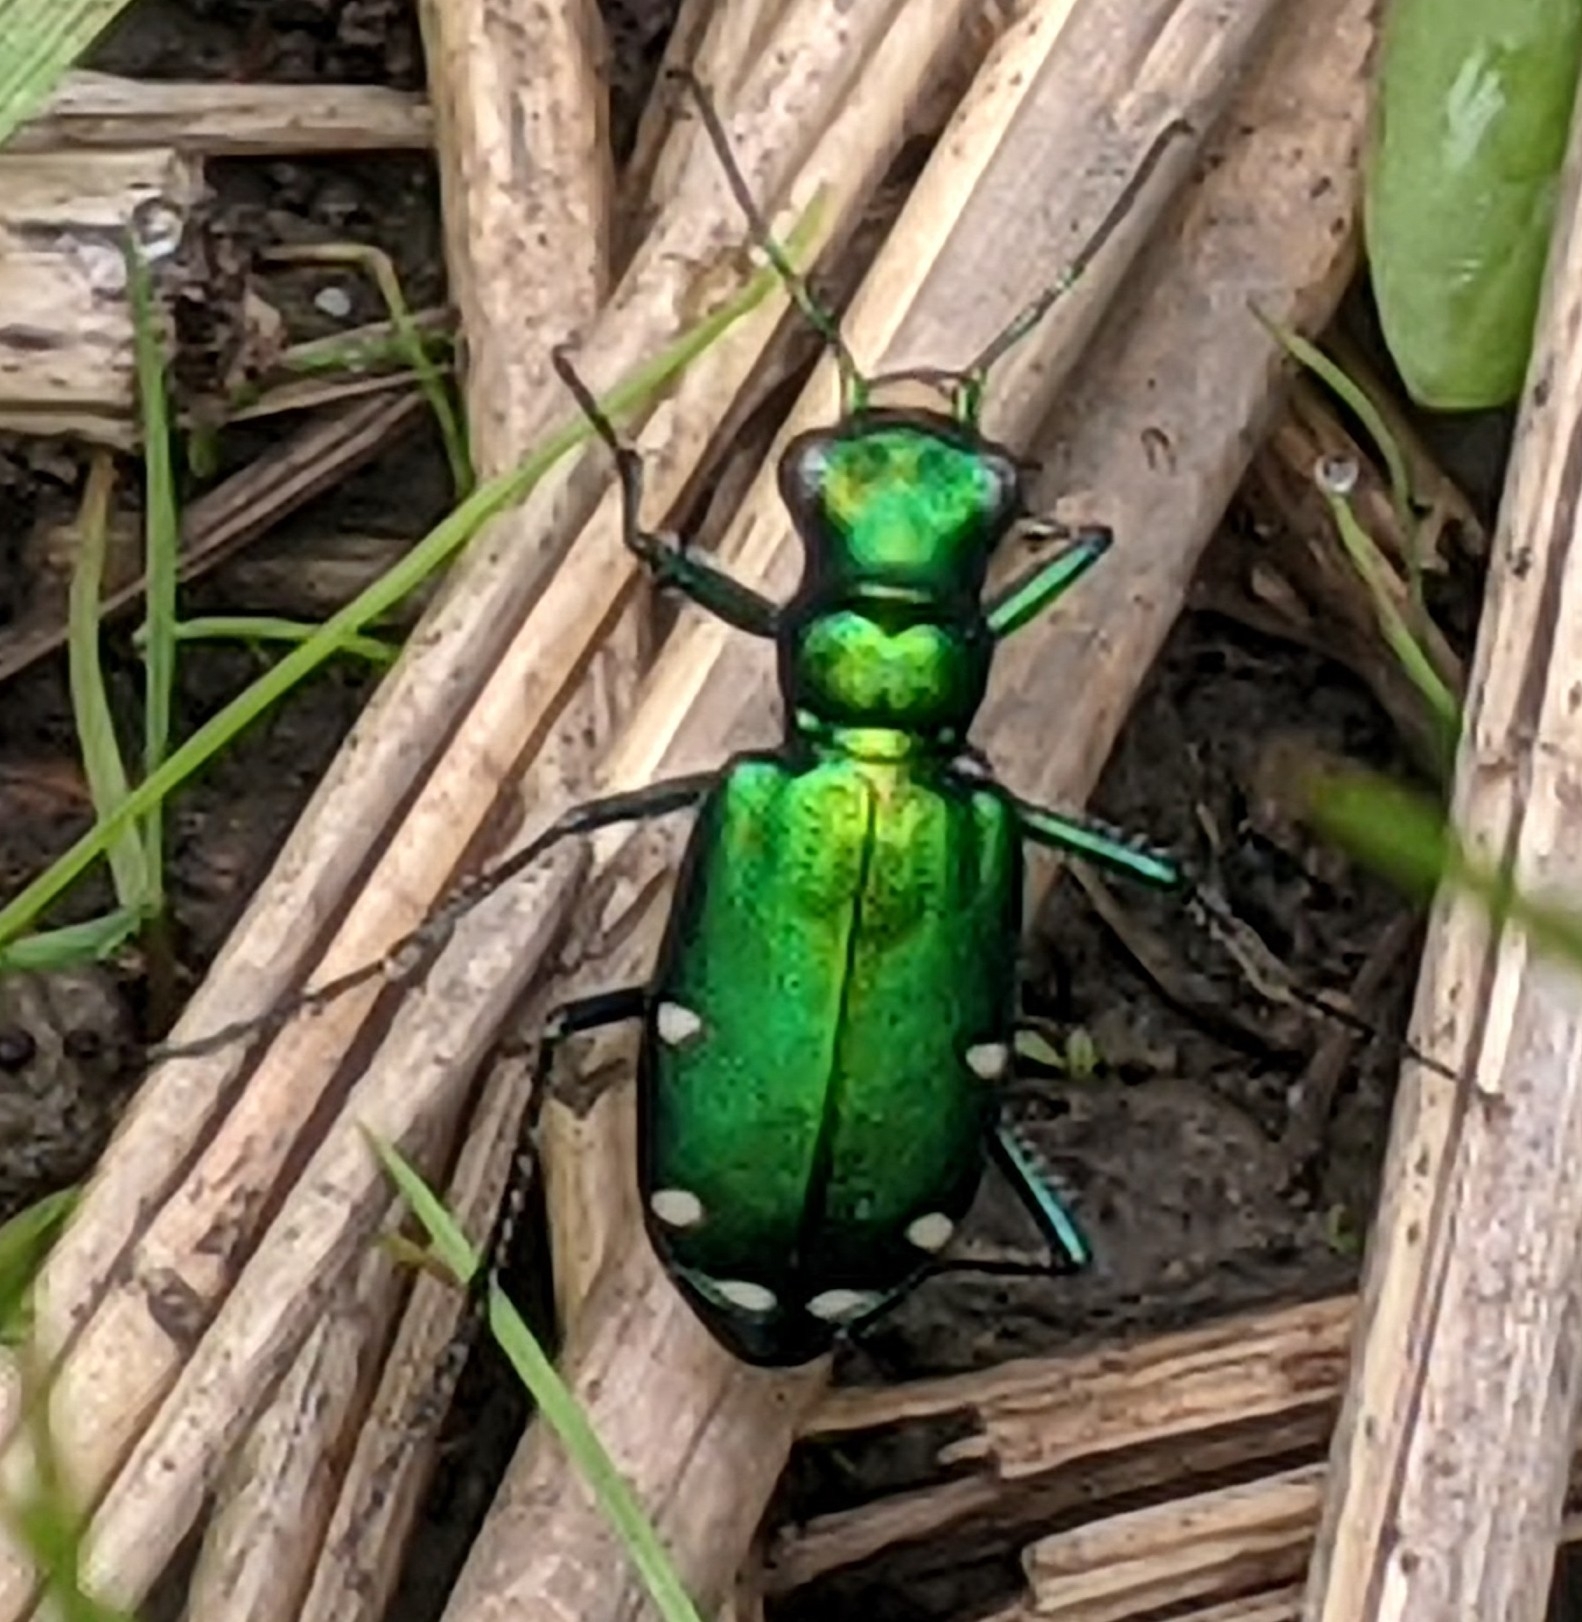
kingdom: Animalia
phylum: Arthropoda
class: Insecta
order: Coleoptera
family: Carabidae
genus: Cicindela
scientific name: Cicindela sexguttata
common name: Six-spotted tiger beetle
